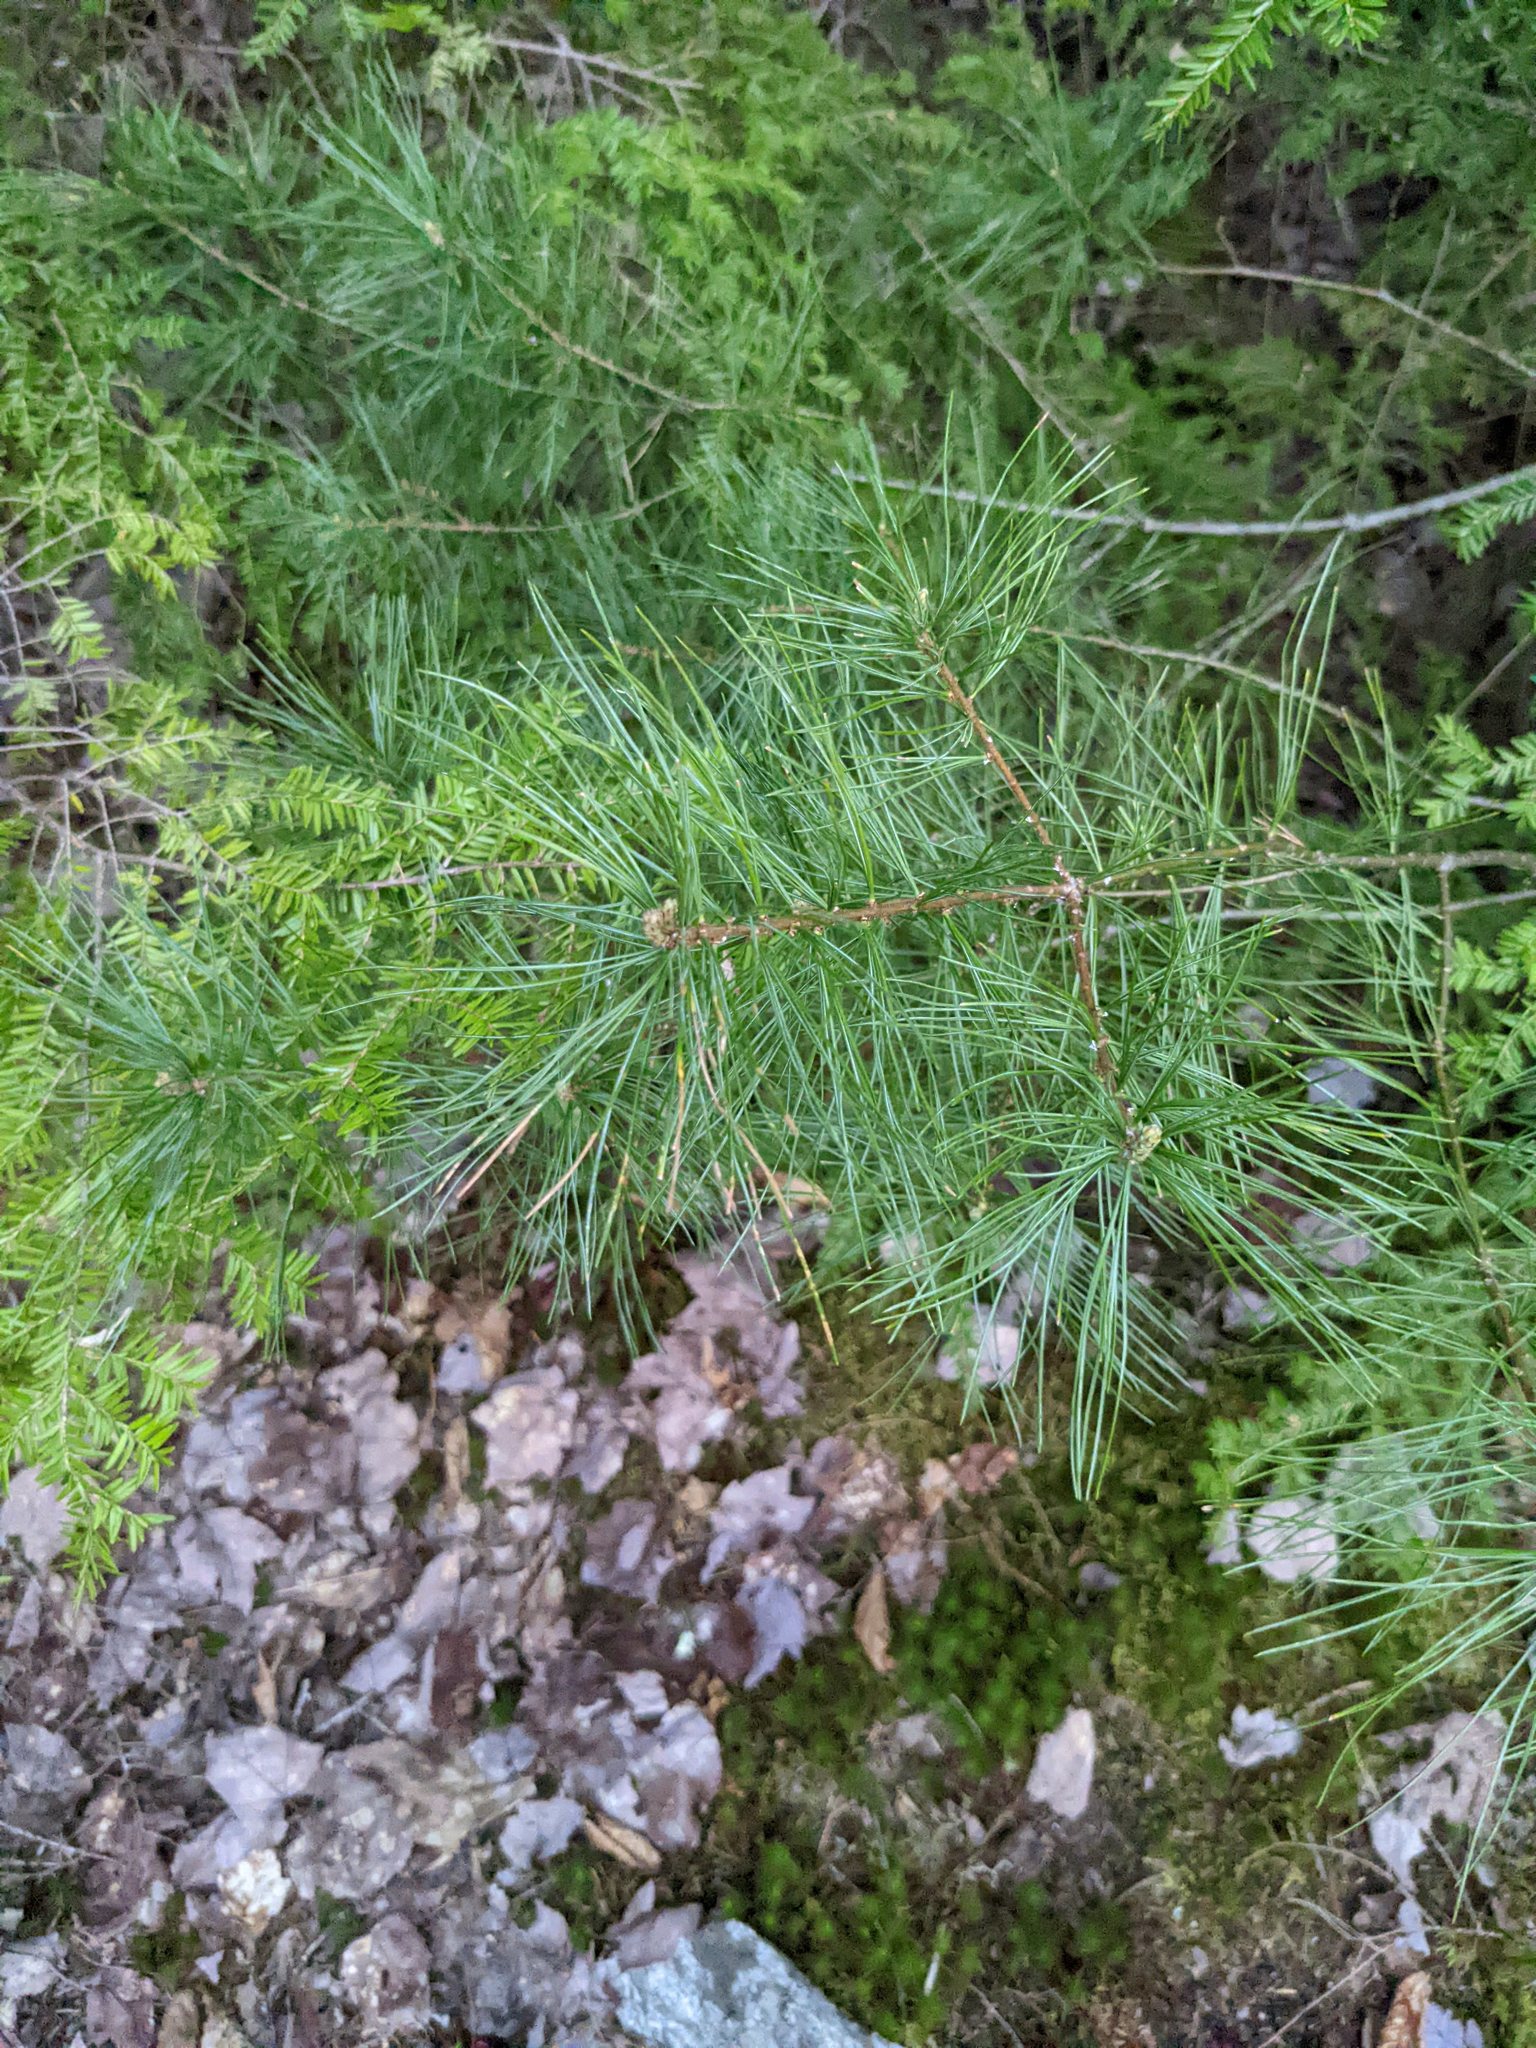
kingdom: Plantae
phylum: Tracheophyta
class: Pinopsida
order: Pinales
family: Pinaceae
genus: Pinus
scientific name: Pinus strobus
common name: Weymouth pine
